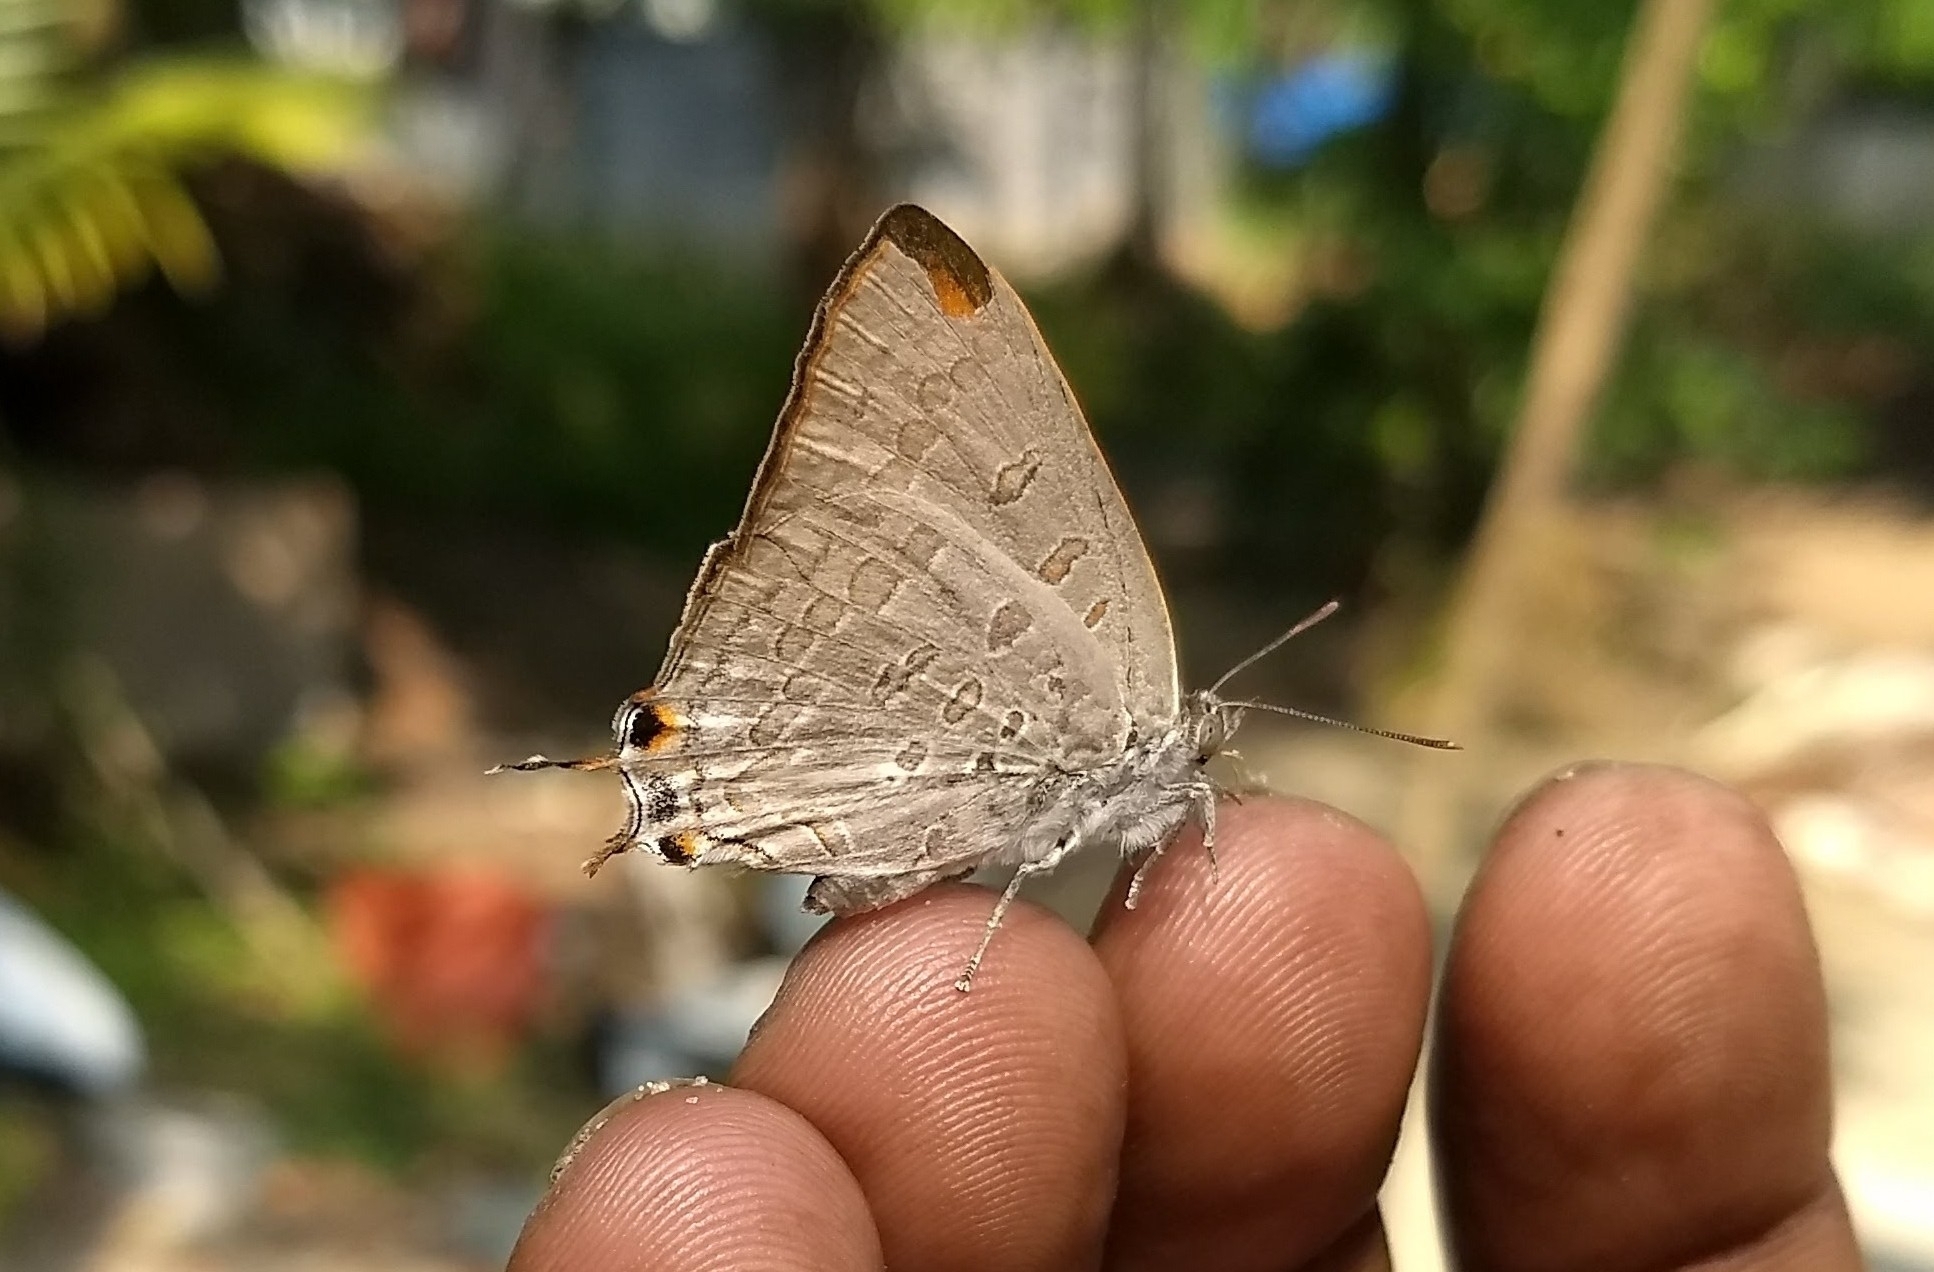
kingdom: Animalia
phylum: Arthropoda
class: Insecta
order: Lepidoptera
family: Lycaenidae
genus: Zesius
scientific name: Zesius chrysomallus
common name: Redspot
